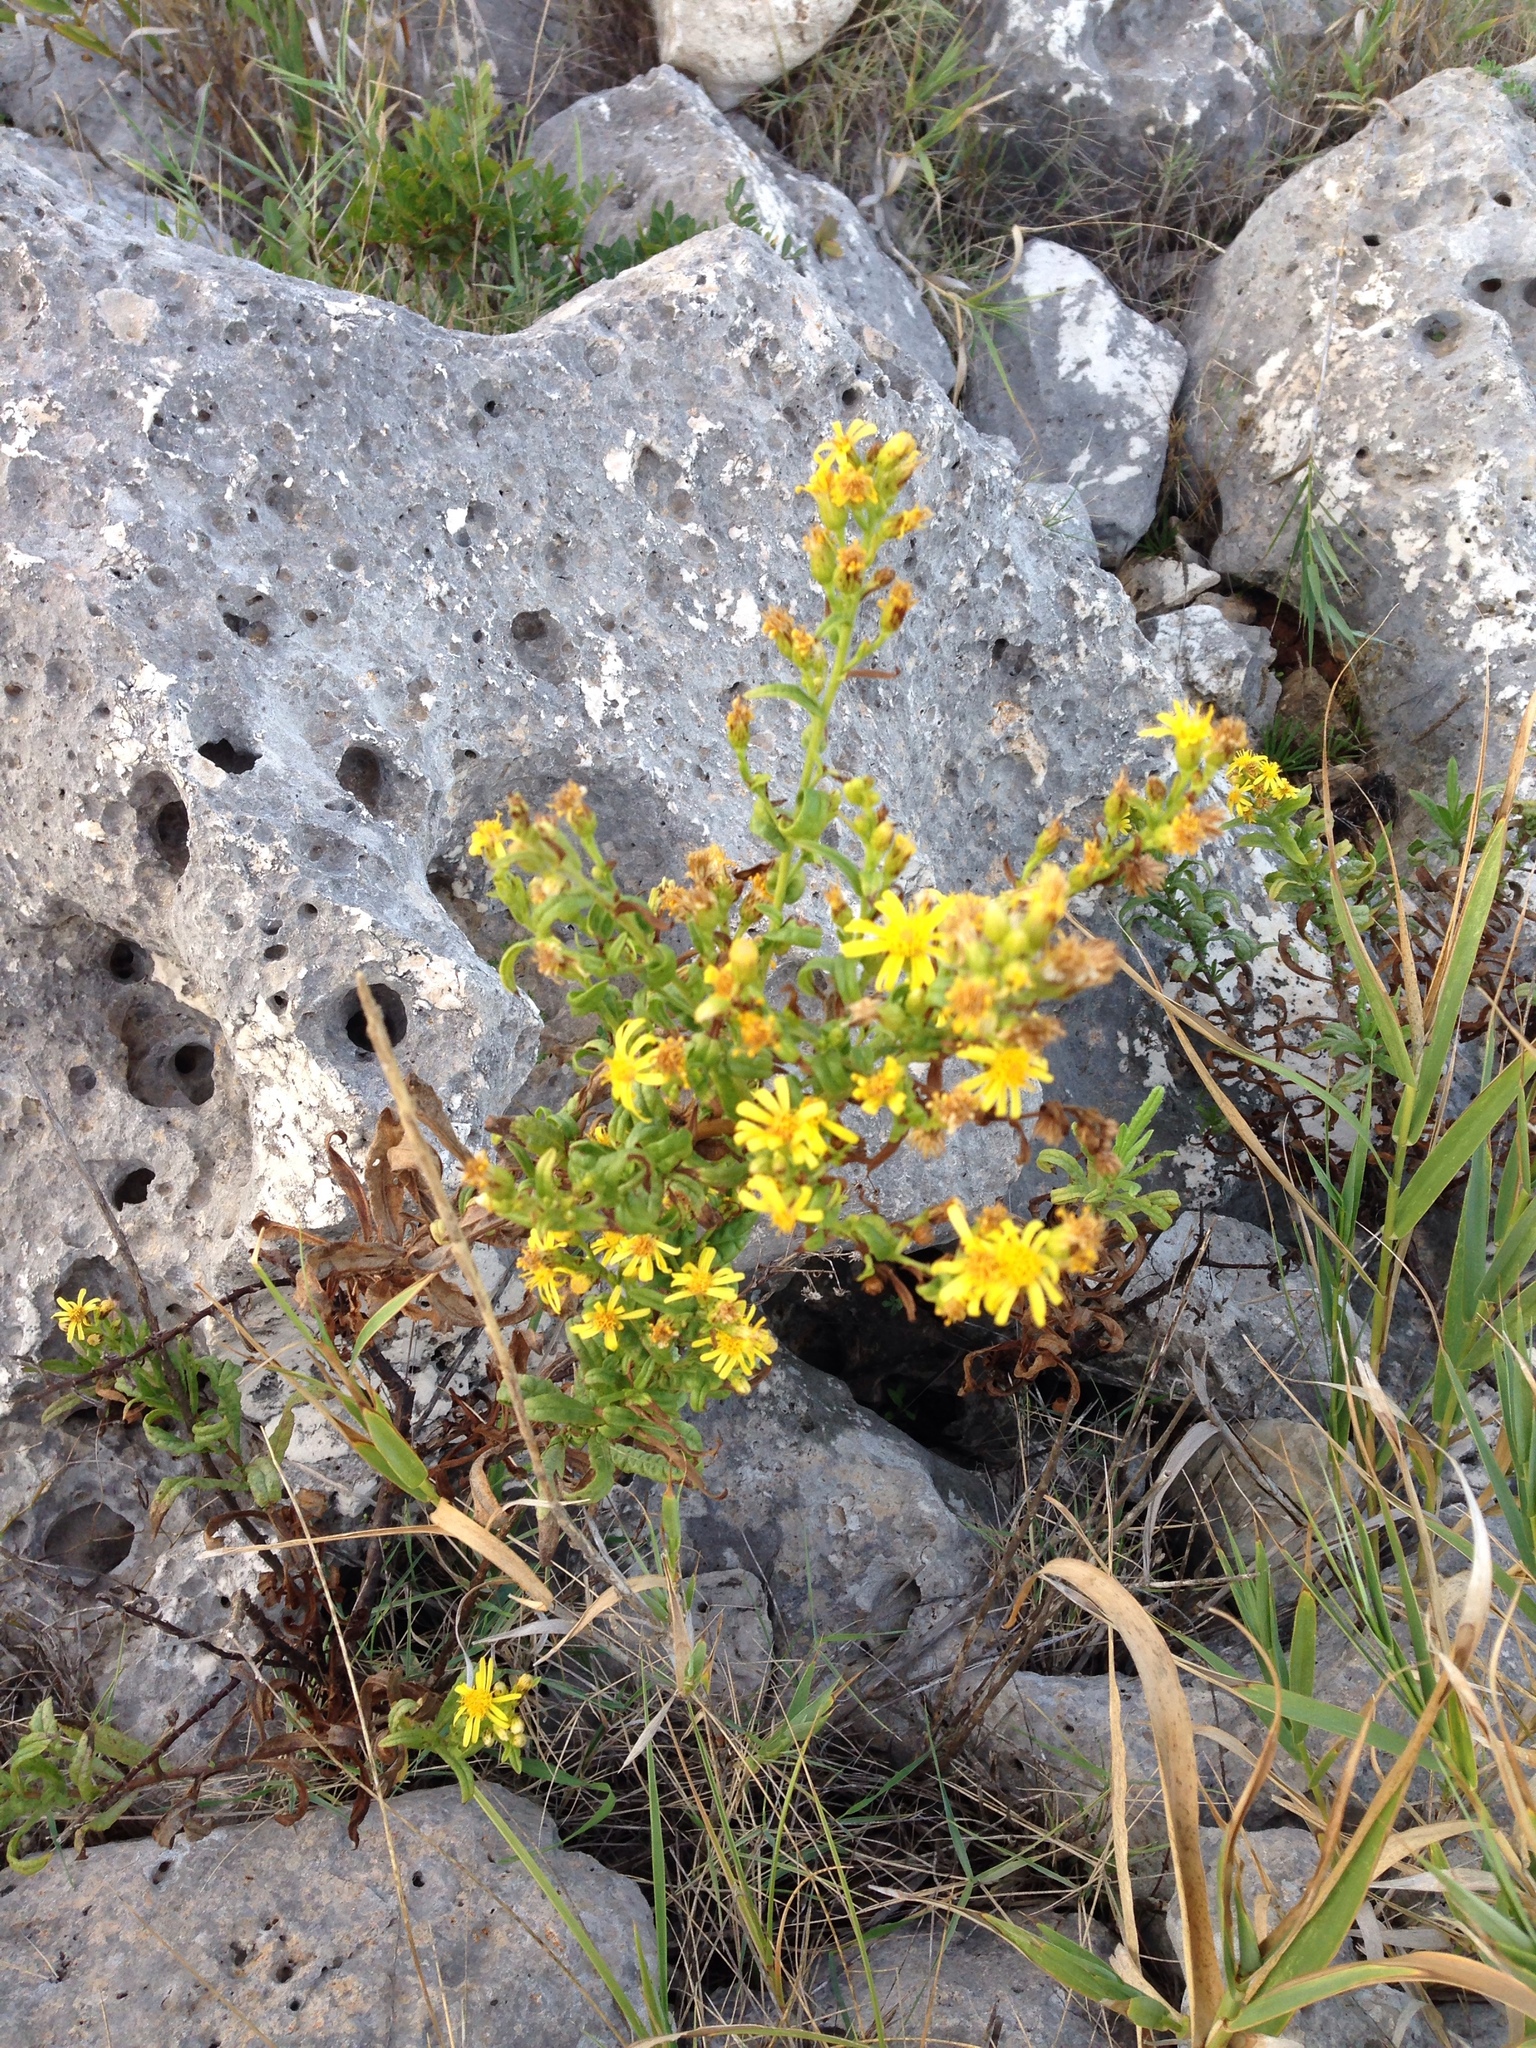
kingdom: Plantae
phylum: Tracheophyta
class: Magnoliopsida
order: Asterales
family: Asteraceae
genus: Dittrichia
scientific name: Dittrichia viscosa
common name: Woody fleabane
